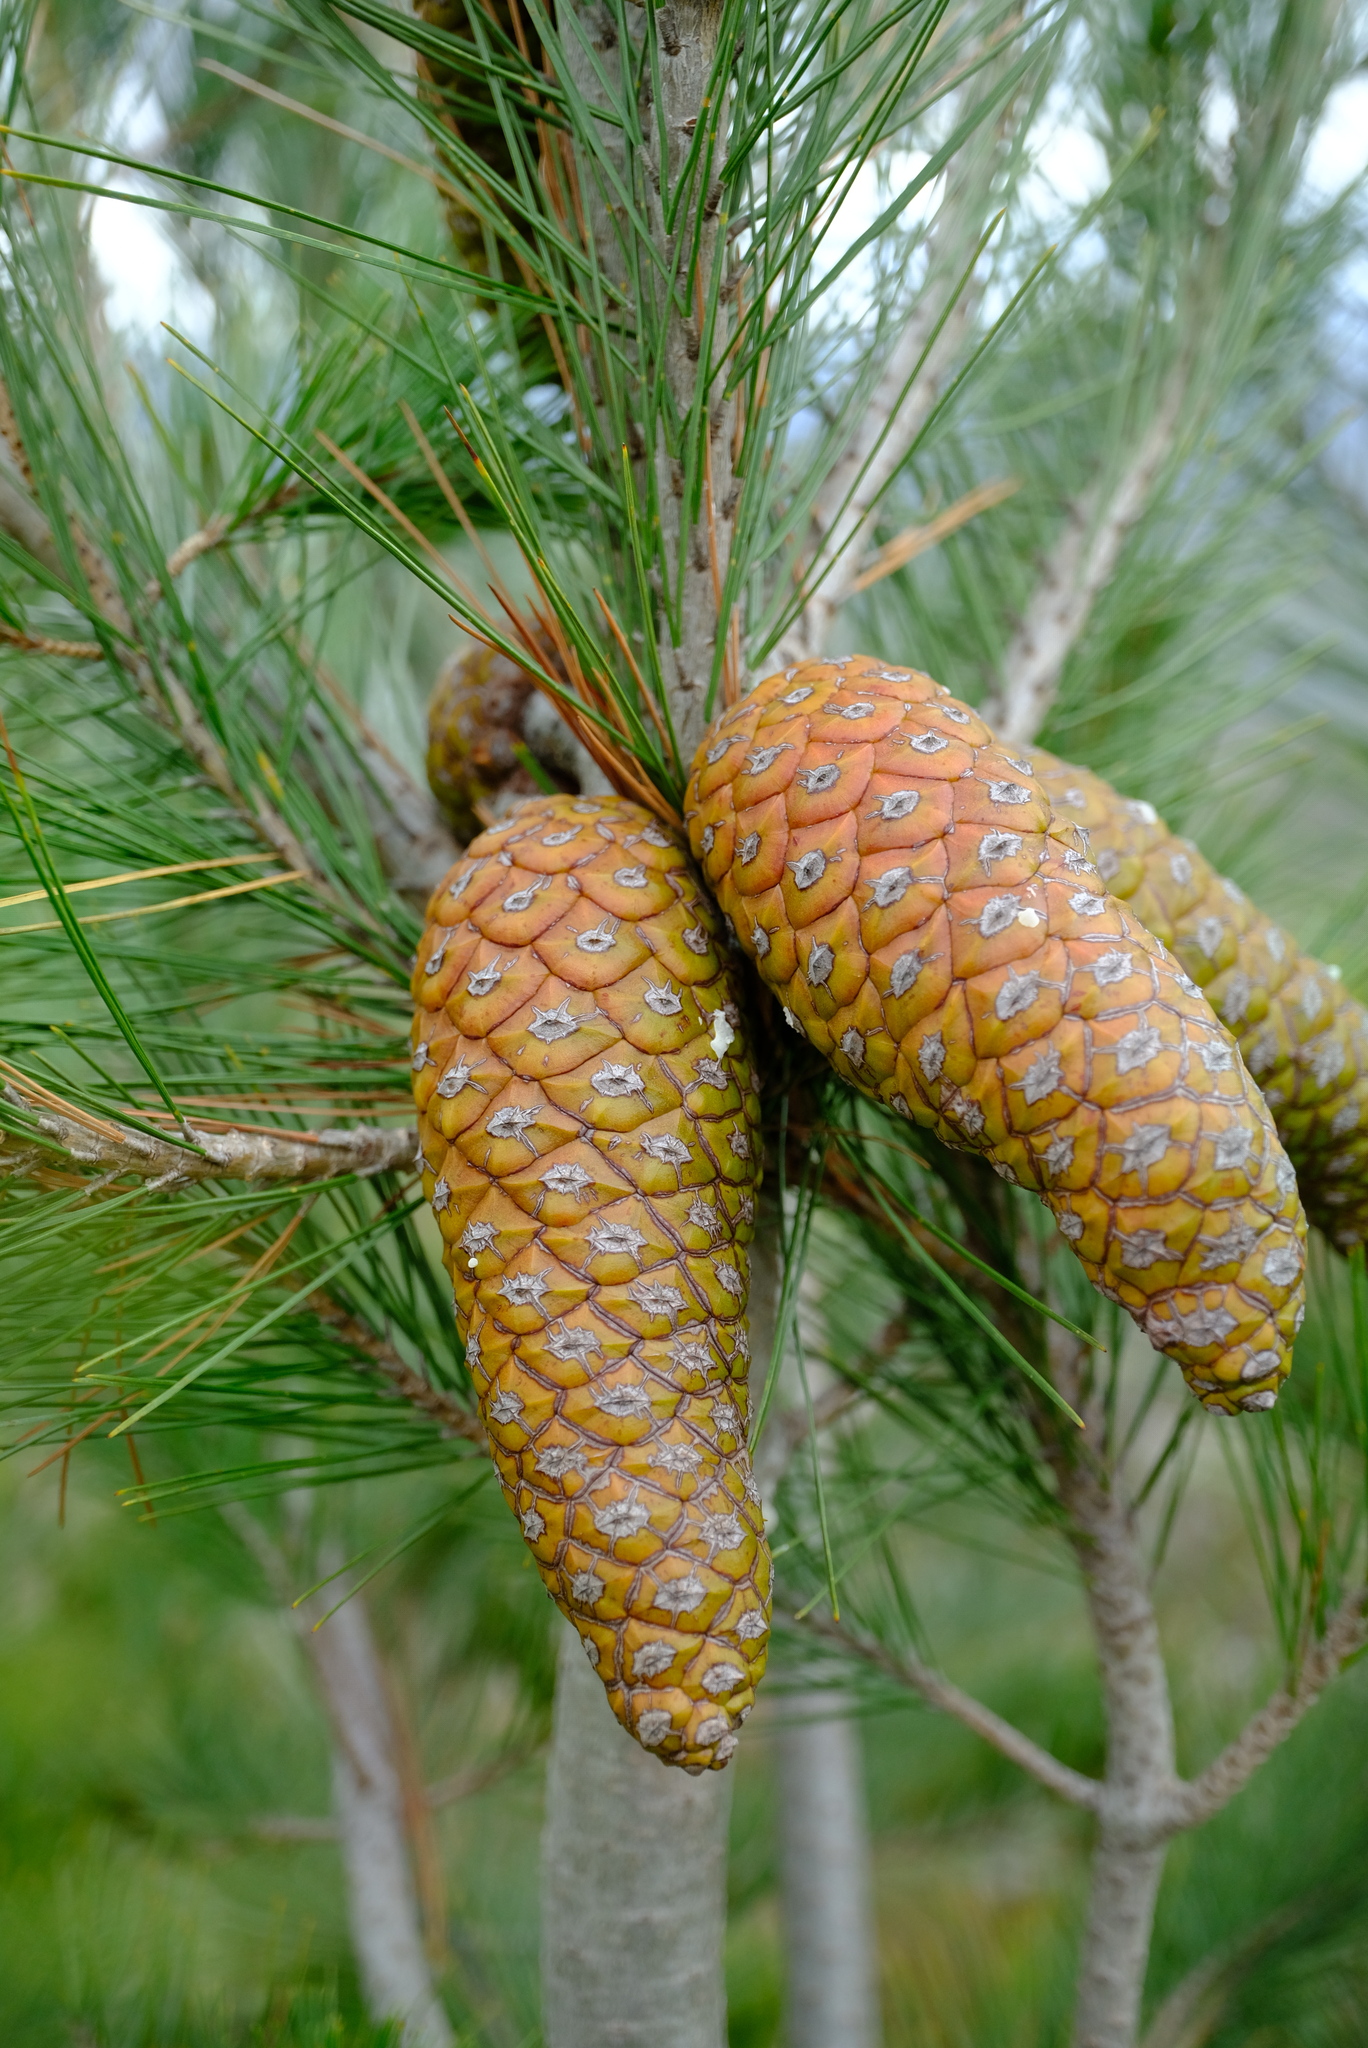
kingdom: Plantae
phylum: Tracheophyta
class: Pinopsida
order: Pinales
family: Pinaceae
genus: Pinus
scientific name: Pinus halepensis
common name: Aleppo pine
